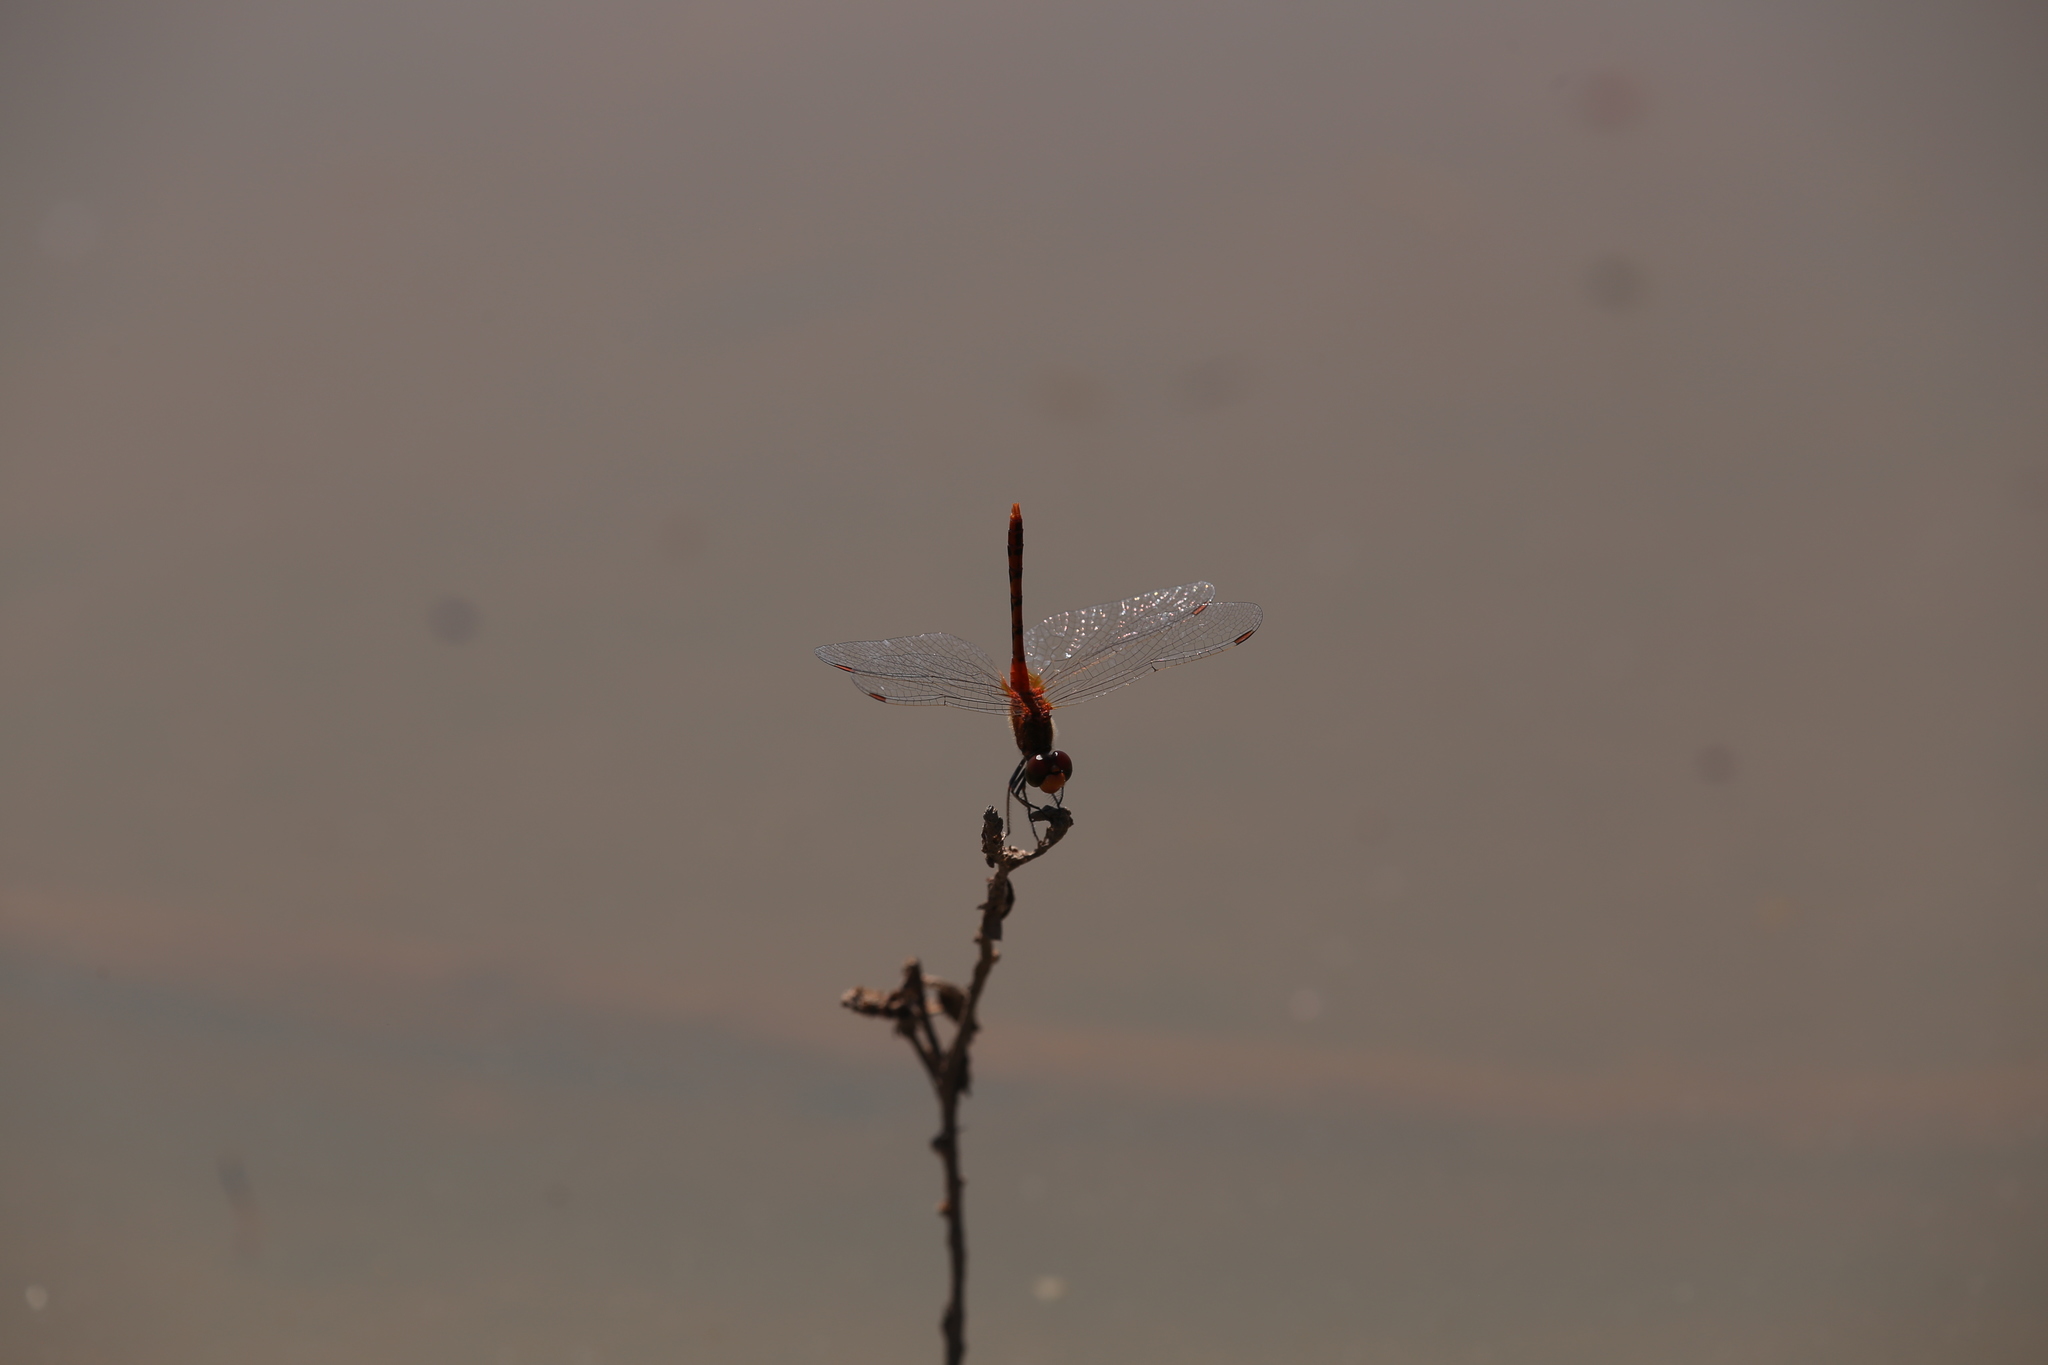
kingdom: Animalia
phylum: Arthropoda
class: Insecta
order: Odonata
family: Libellulidae
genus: Diplacodes
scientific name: Diplacodes bipunctata
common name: Red percher dragonfly
